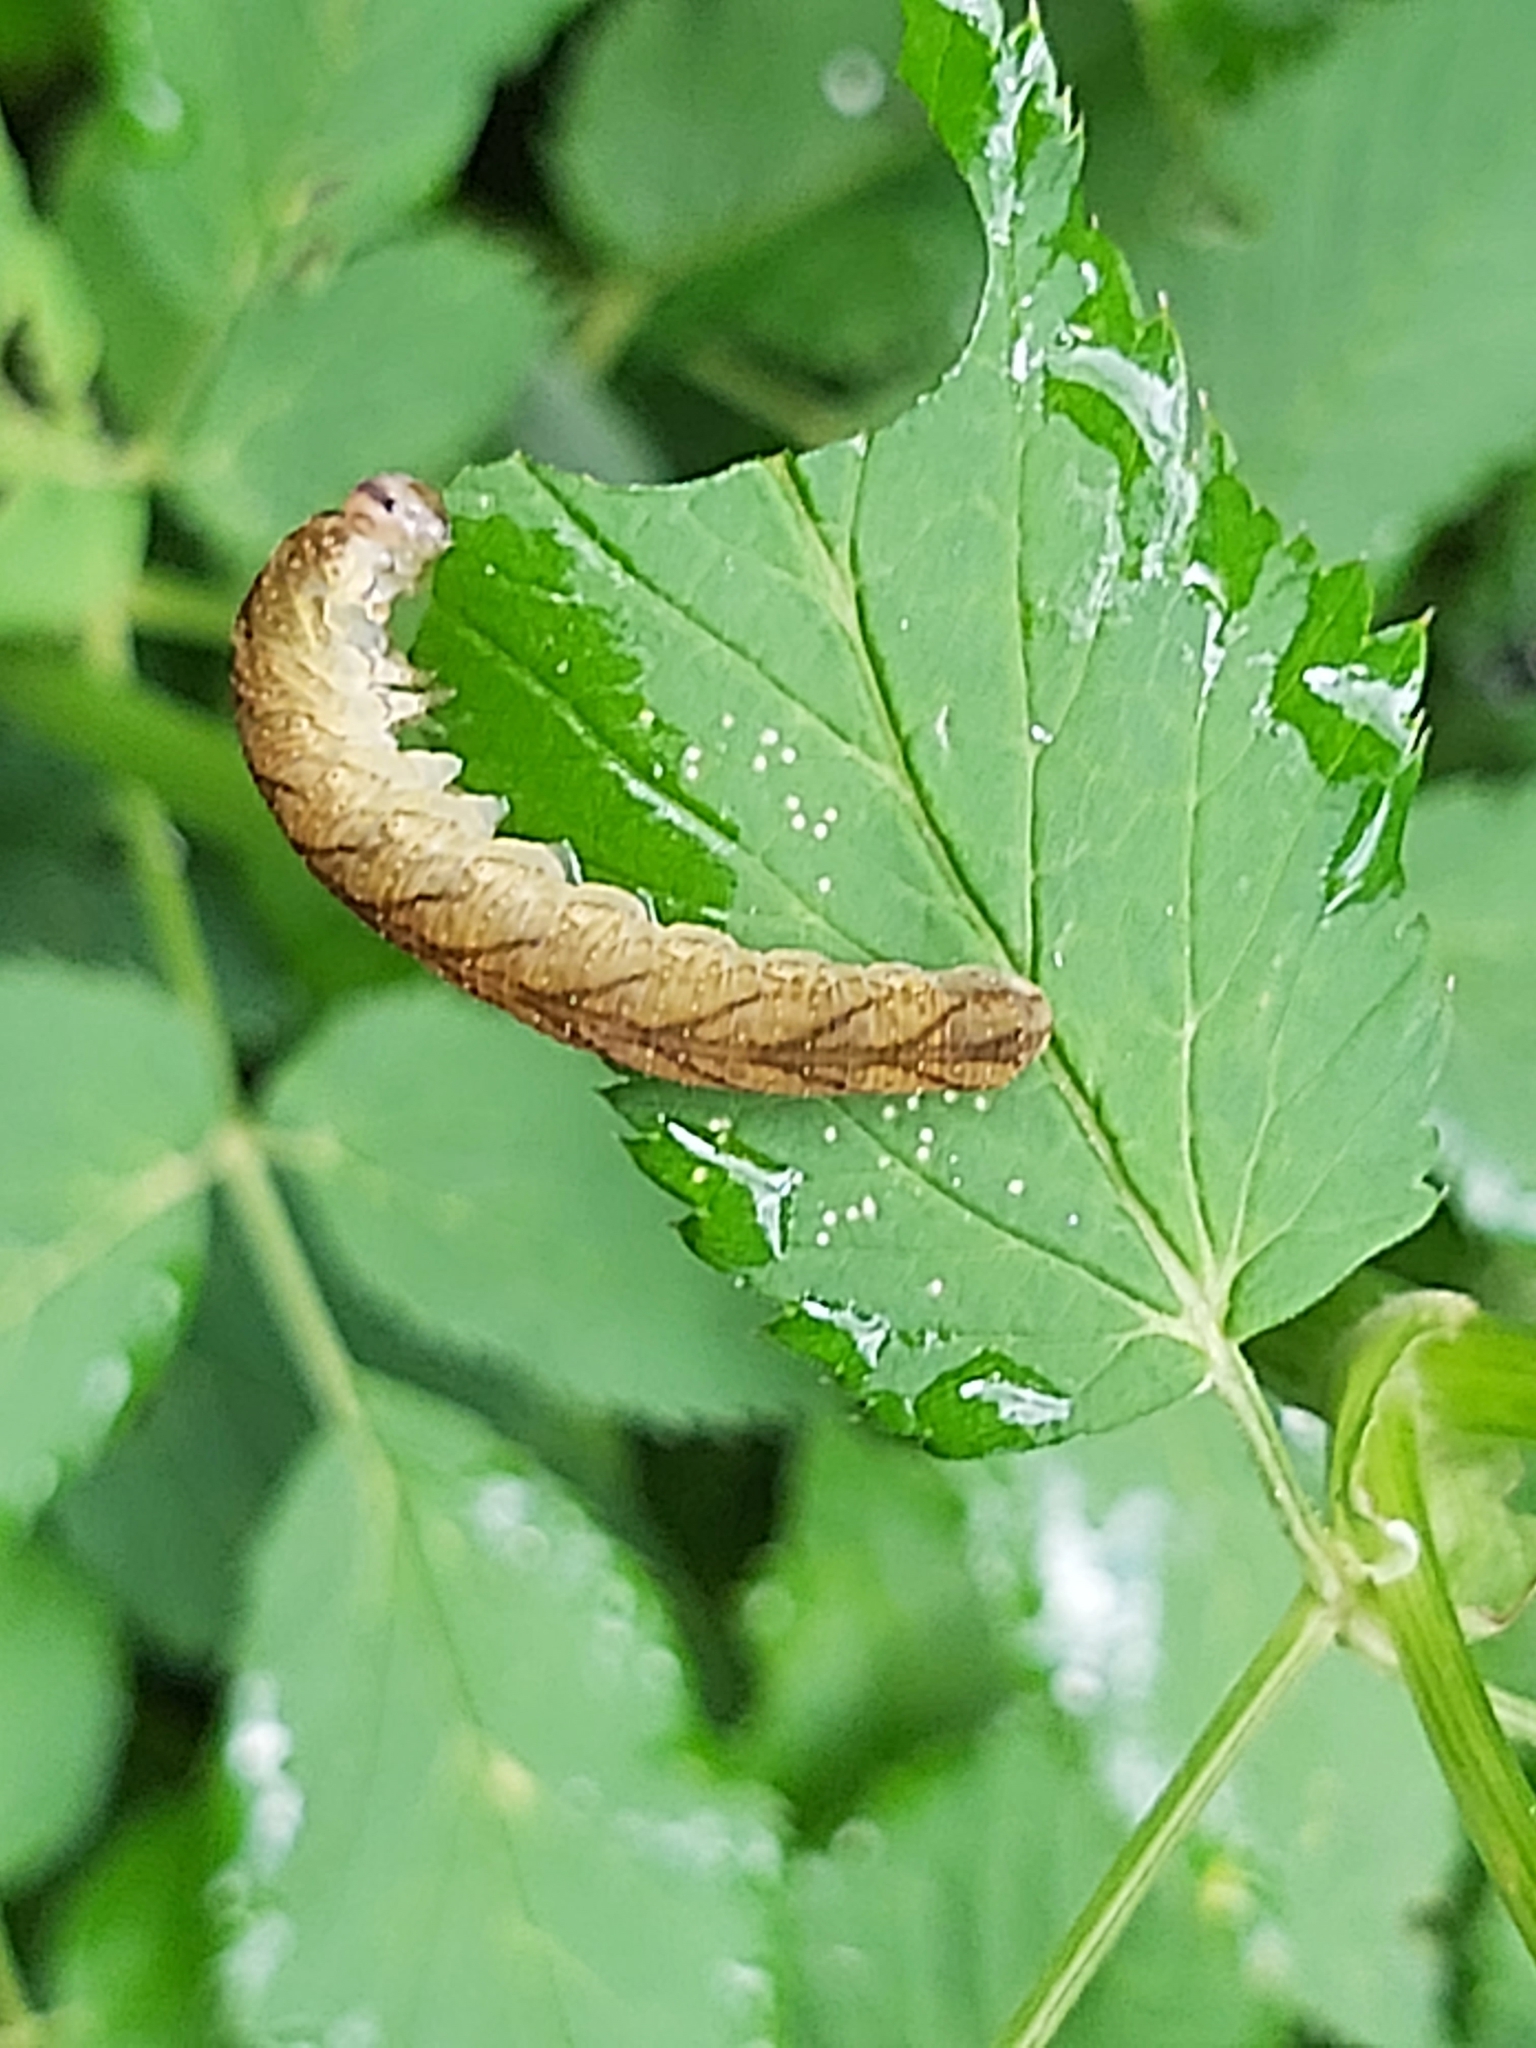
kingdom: Animalia
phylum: Arthropoda
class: Insecta
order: Hymenoptera
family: Tenthredinidae
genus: Tenthredo
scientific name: Tenthredo campestris
